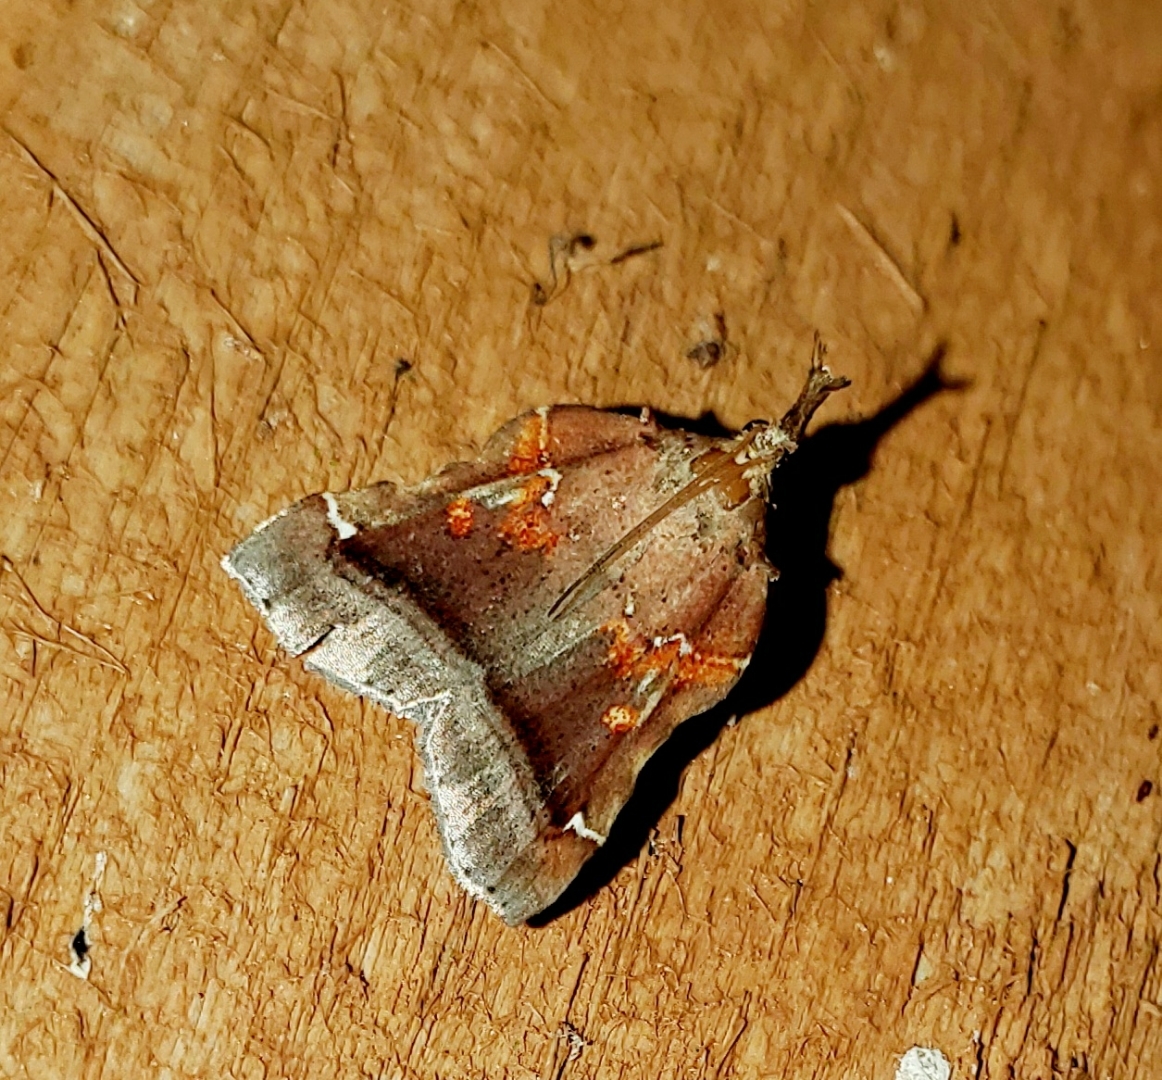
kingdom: Animalia
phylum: Arthropoda
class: Insecta
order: Lepidoptera
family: Pyralidae
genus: Clydonopteron
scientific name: Clydonopteron sacculana
